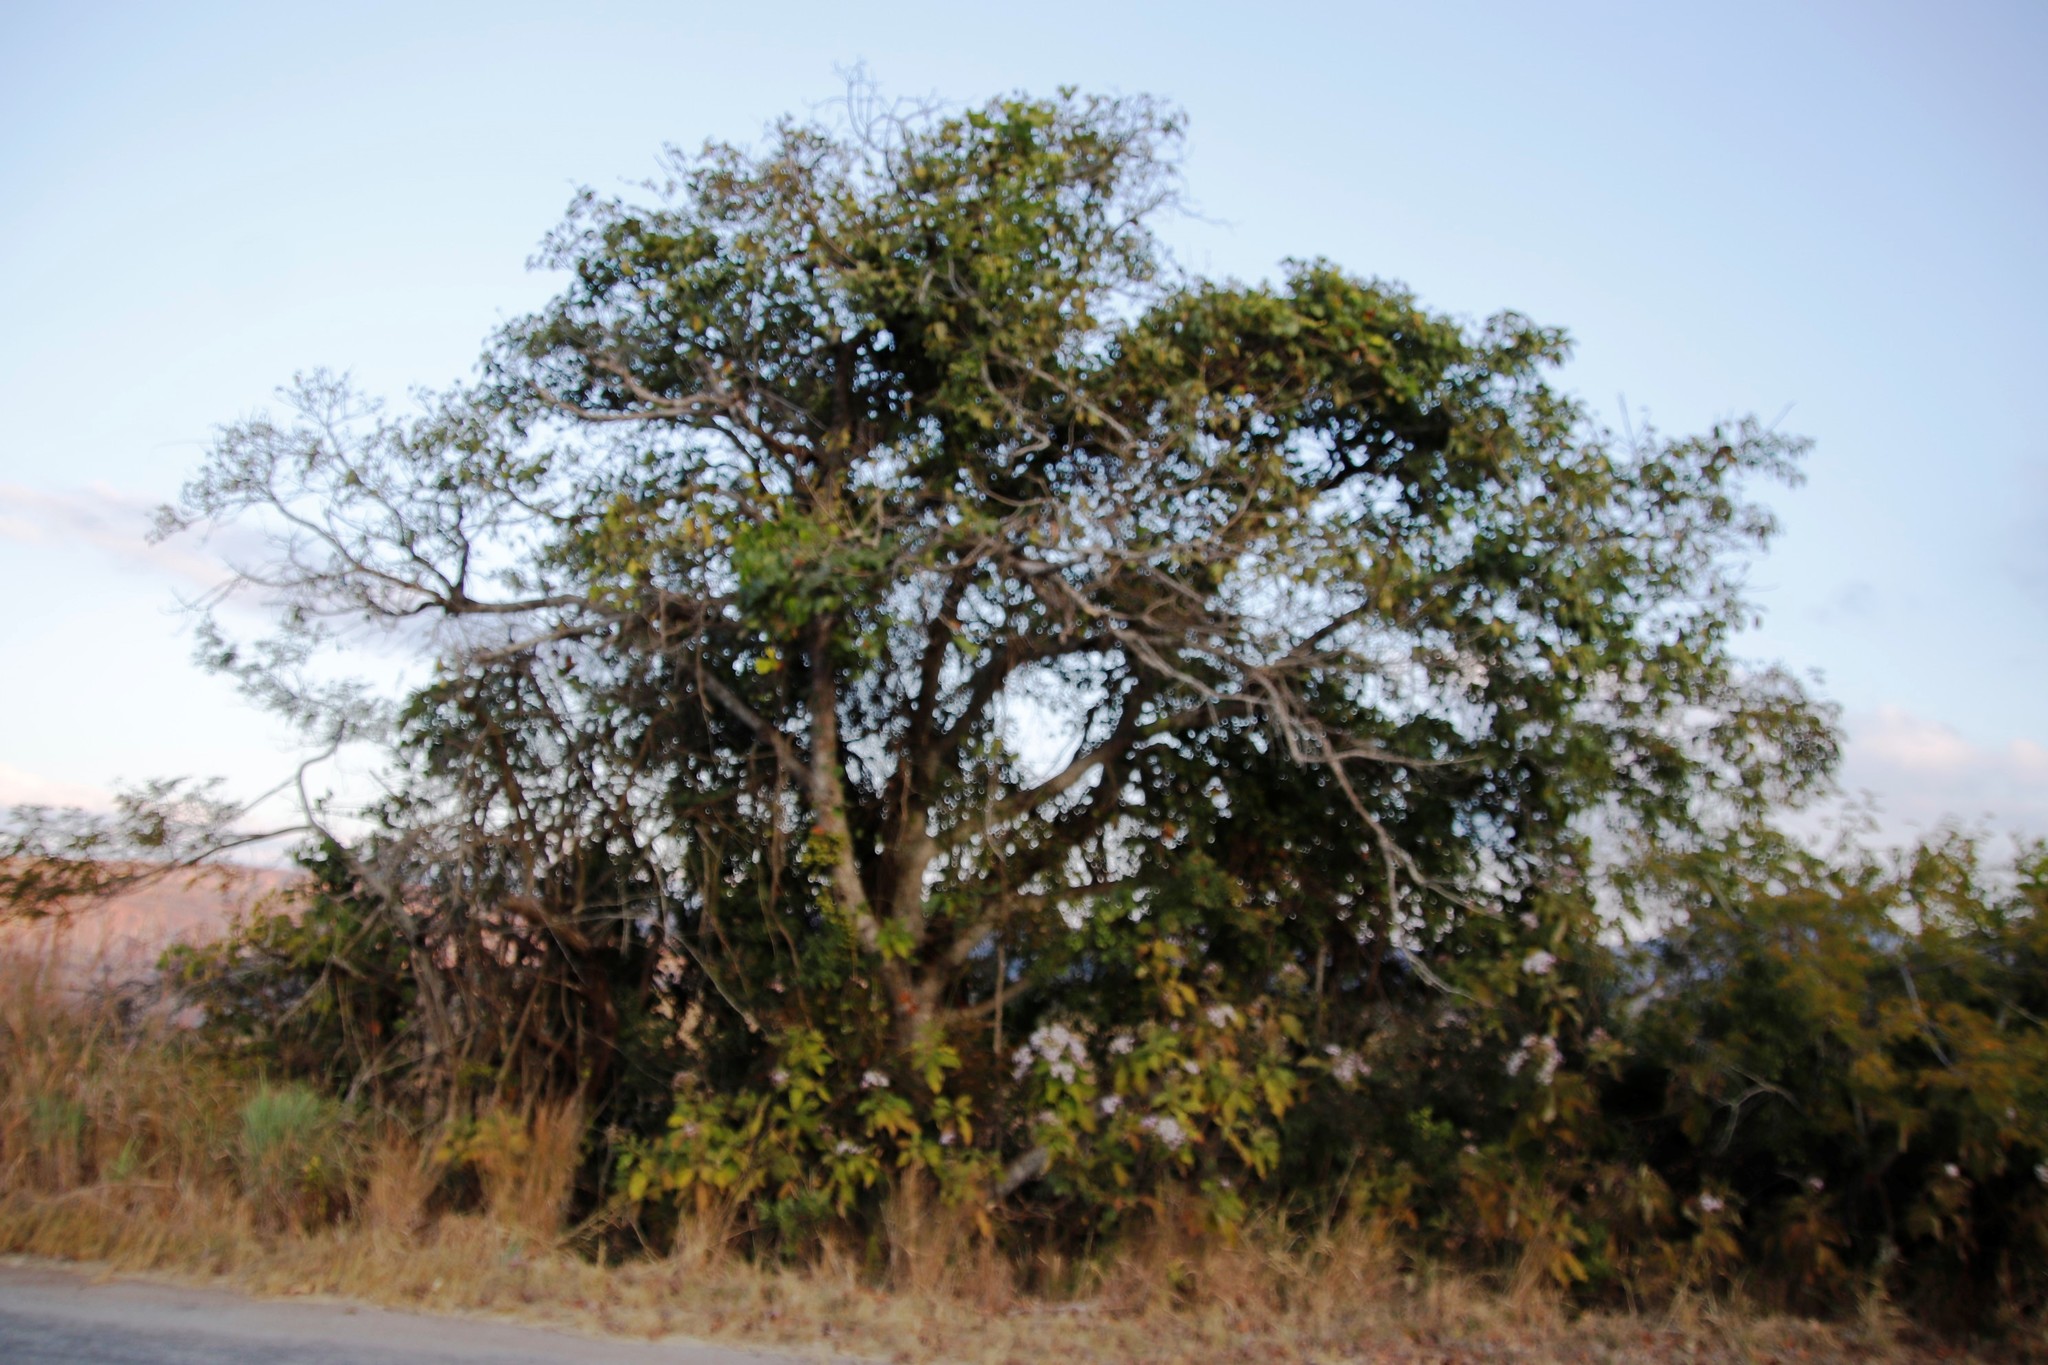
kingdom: Plantae
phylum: Tracheophyta
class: Magnoliopsida
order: Rosales
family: Moraceae
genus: Ficus
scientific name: Ficus sur
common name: Cape fig
